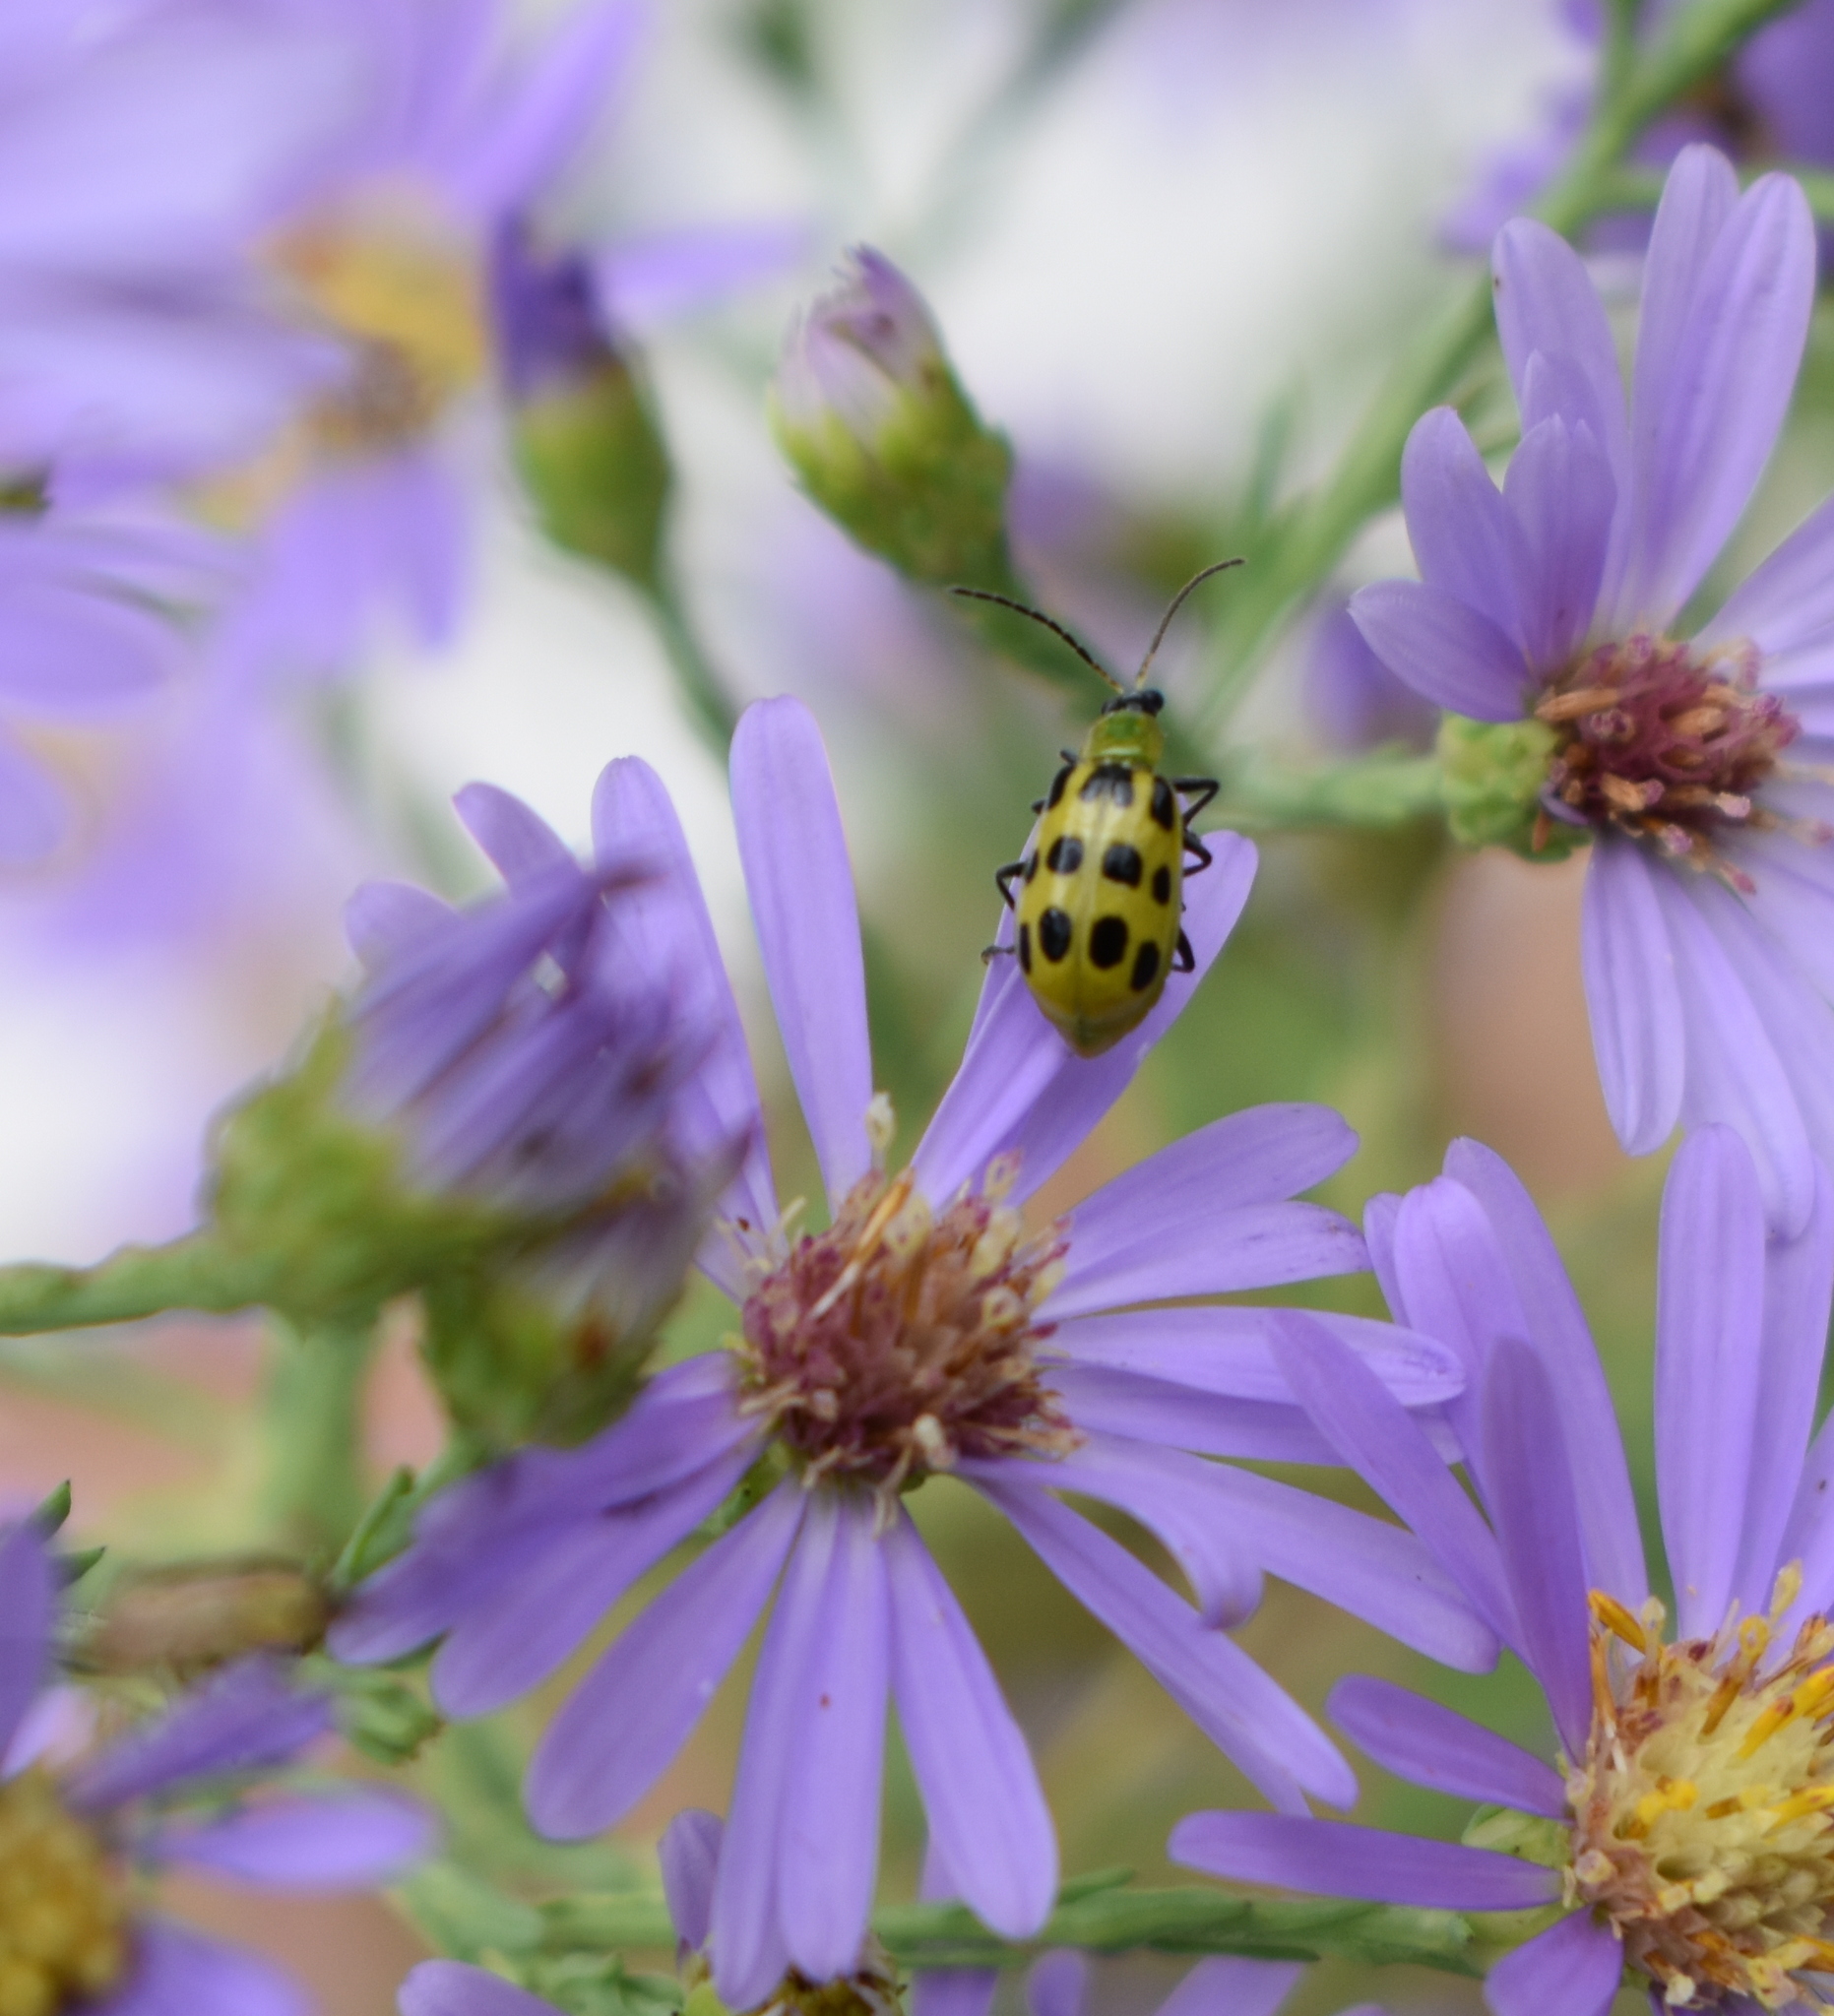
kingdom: Animalia
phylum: Arthropoda
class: Insecta
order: Coleoptera
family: Chrysomelidae
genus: Diabrotica
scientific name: Diabrotica undecimpunctata
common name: Spotted cucumber beetle
